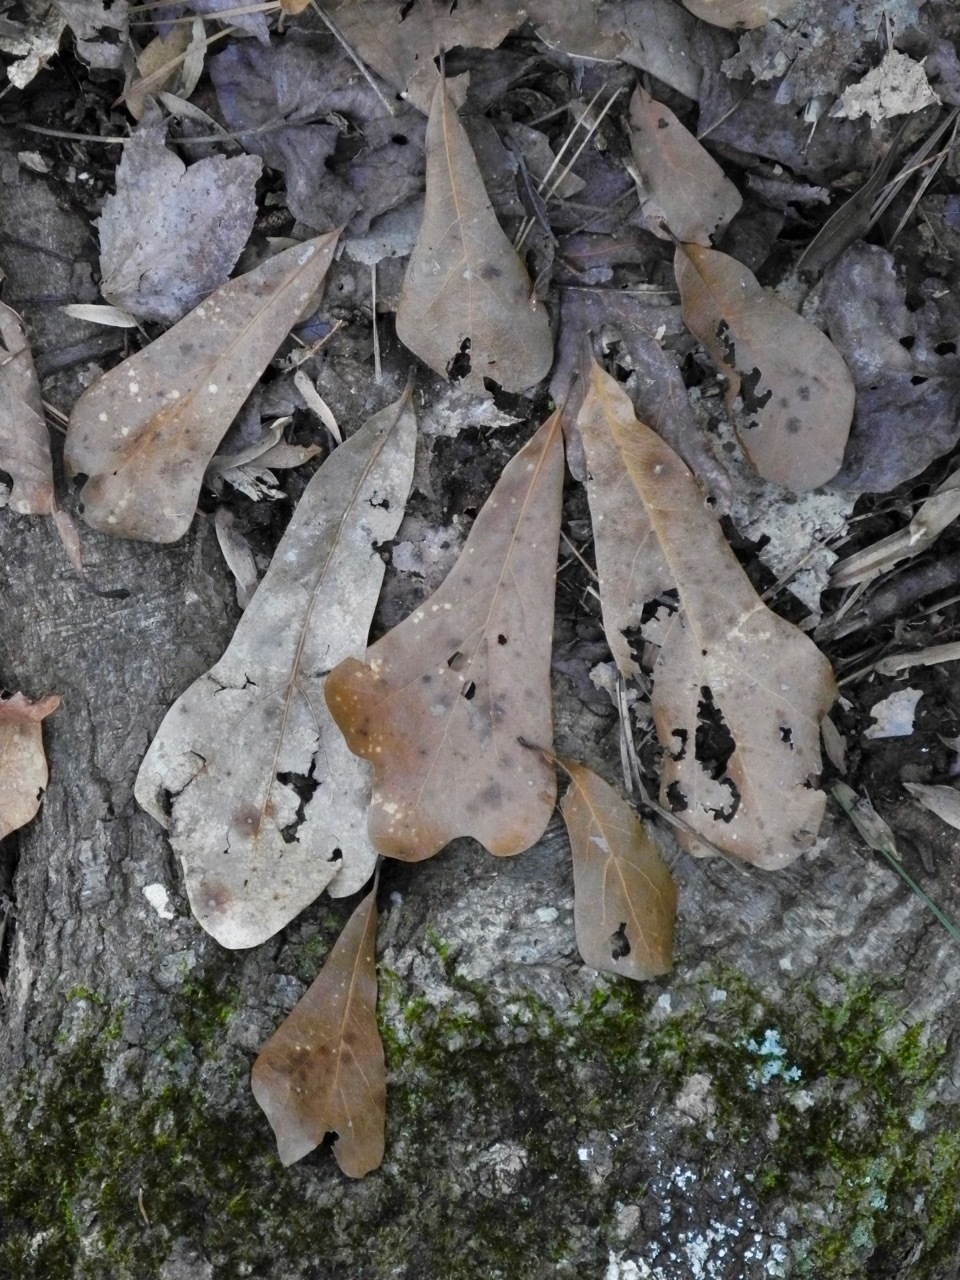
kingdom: Plantae
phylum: Tracheophyta
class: Magnoliopsida
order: Fagales
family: Fagaceae
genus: Quercus
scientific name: Quercus nigra
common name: Water oak
